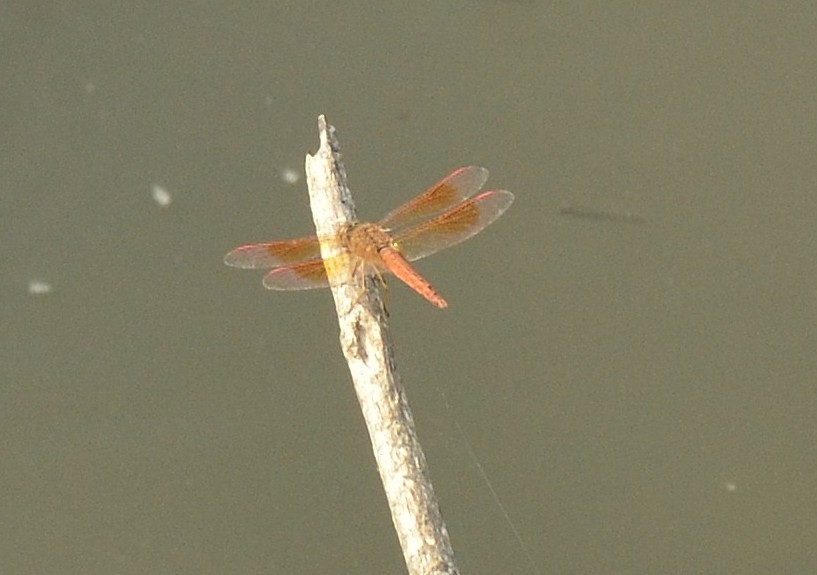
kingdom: Animalia
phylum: Arthropoda
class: Insecta
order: Odonata
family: Libellulidae
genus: Brachythemis
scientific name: Brachythemis contaminata
